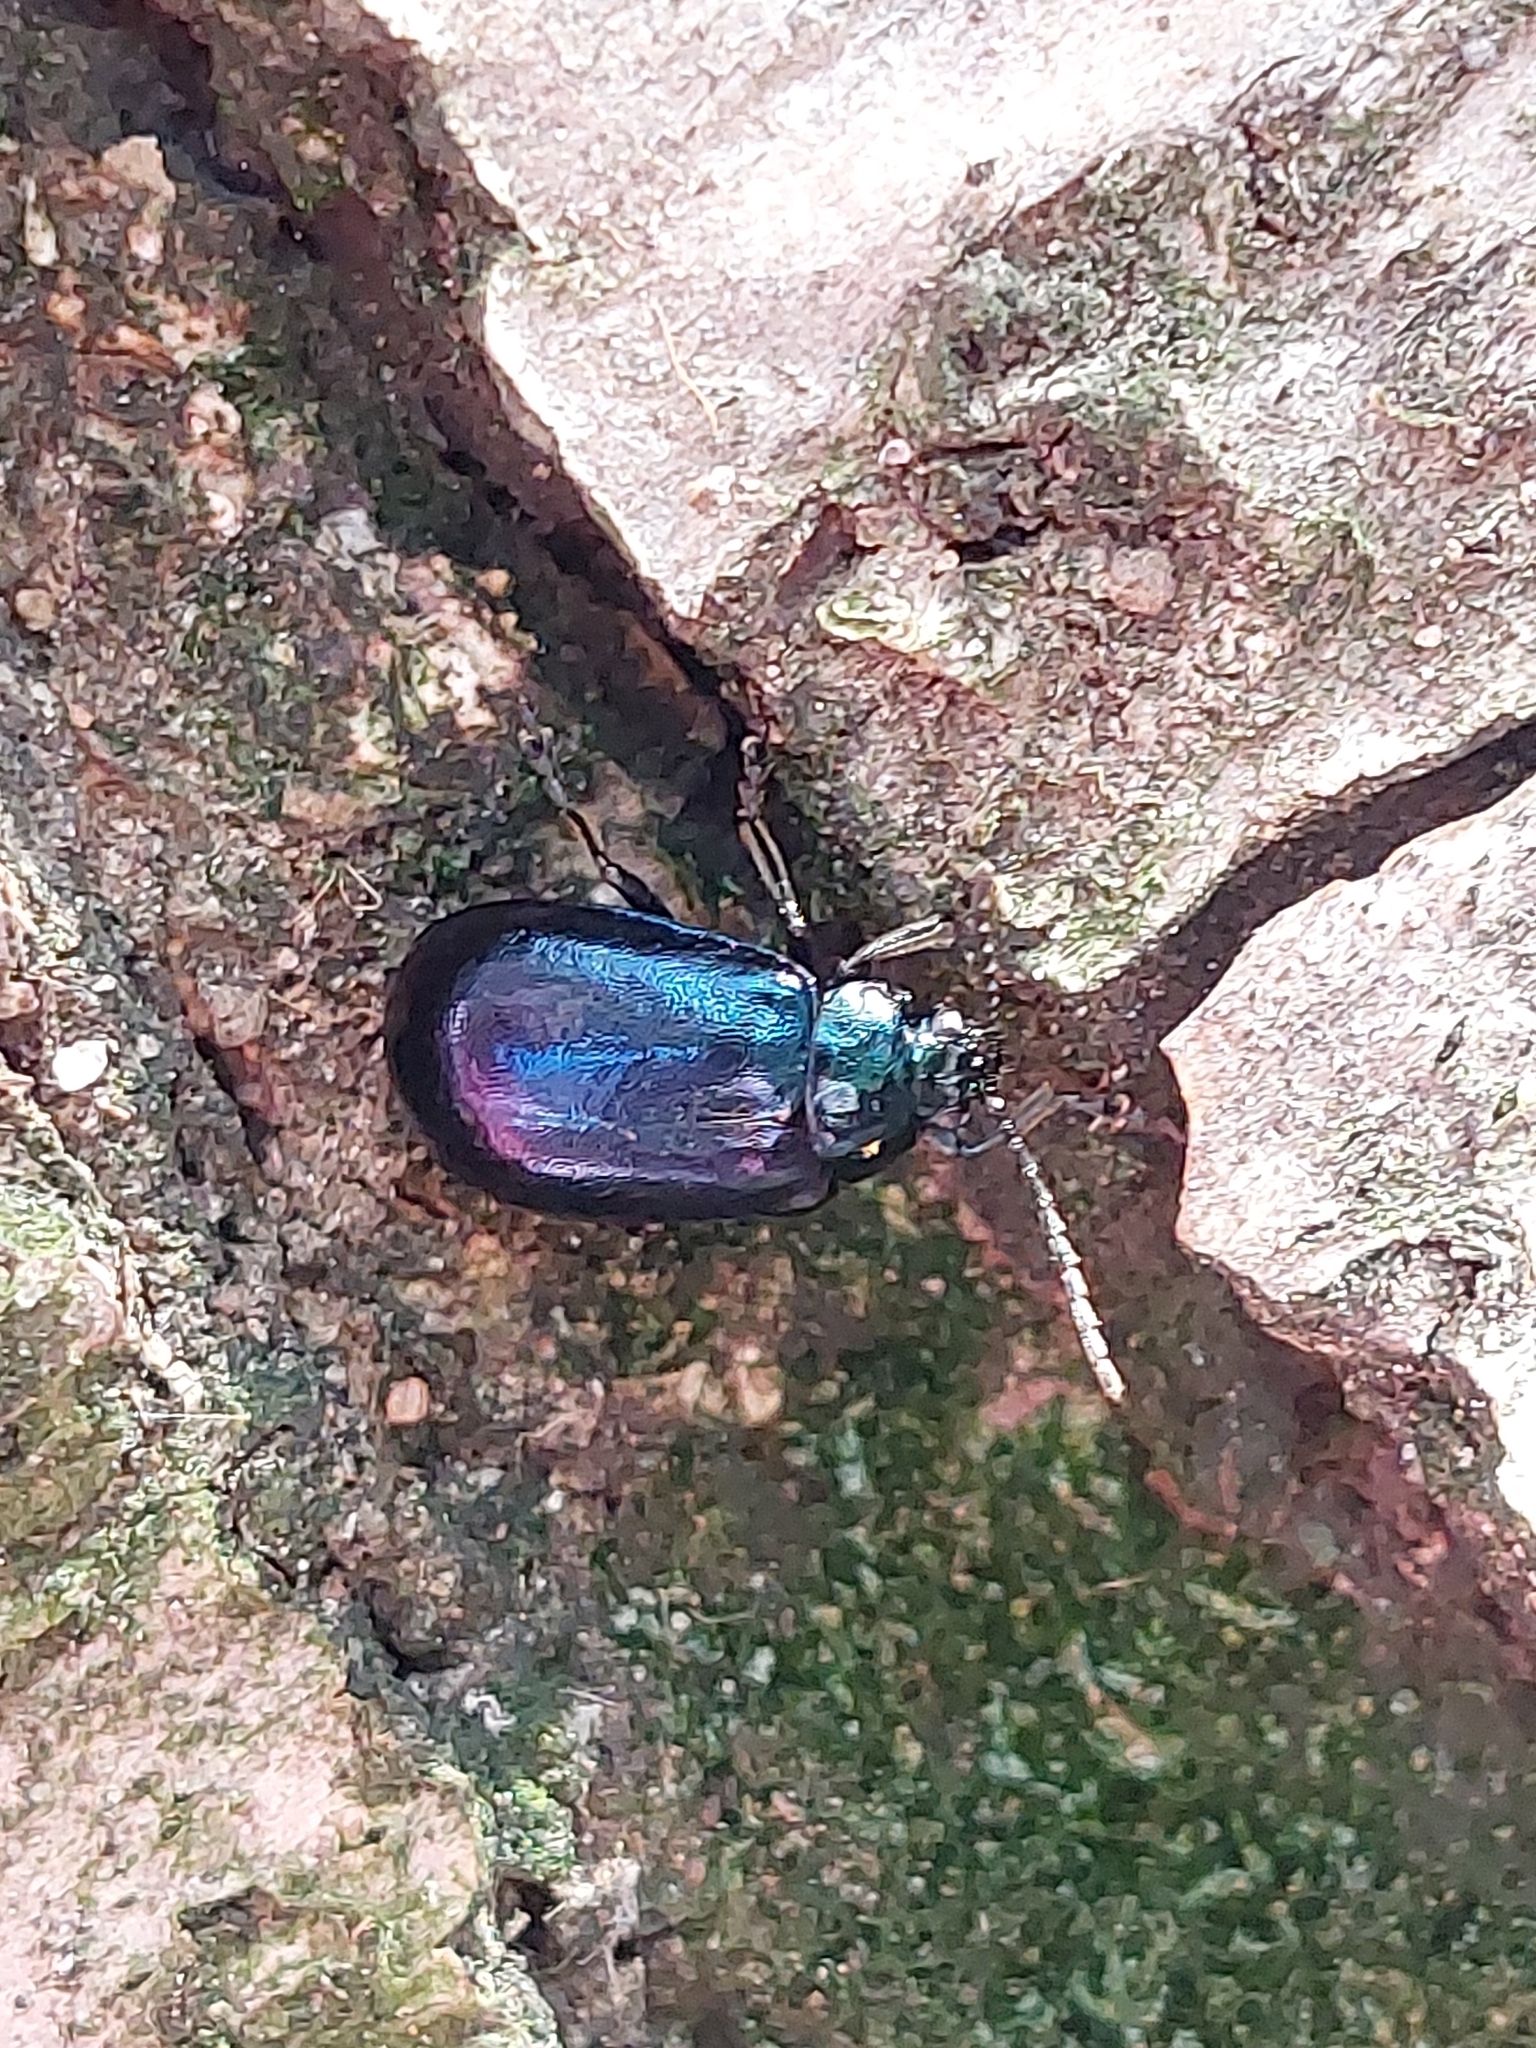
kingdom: Animalia
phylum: Arthropoda
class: Insecta
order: Coleoptera
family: Chrysomelidae
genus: Agelastica
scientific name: Agelastica alni
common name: Alder leaf beetle
